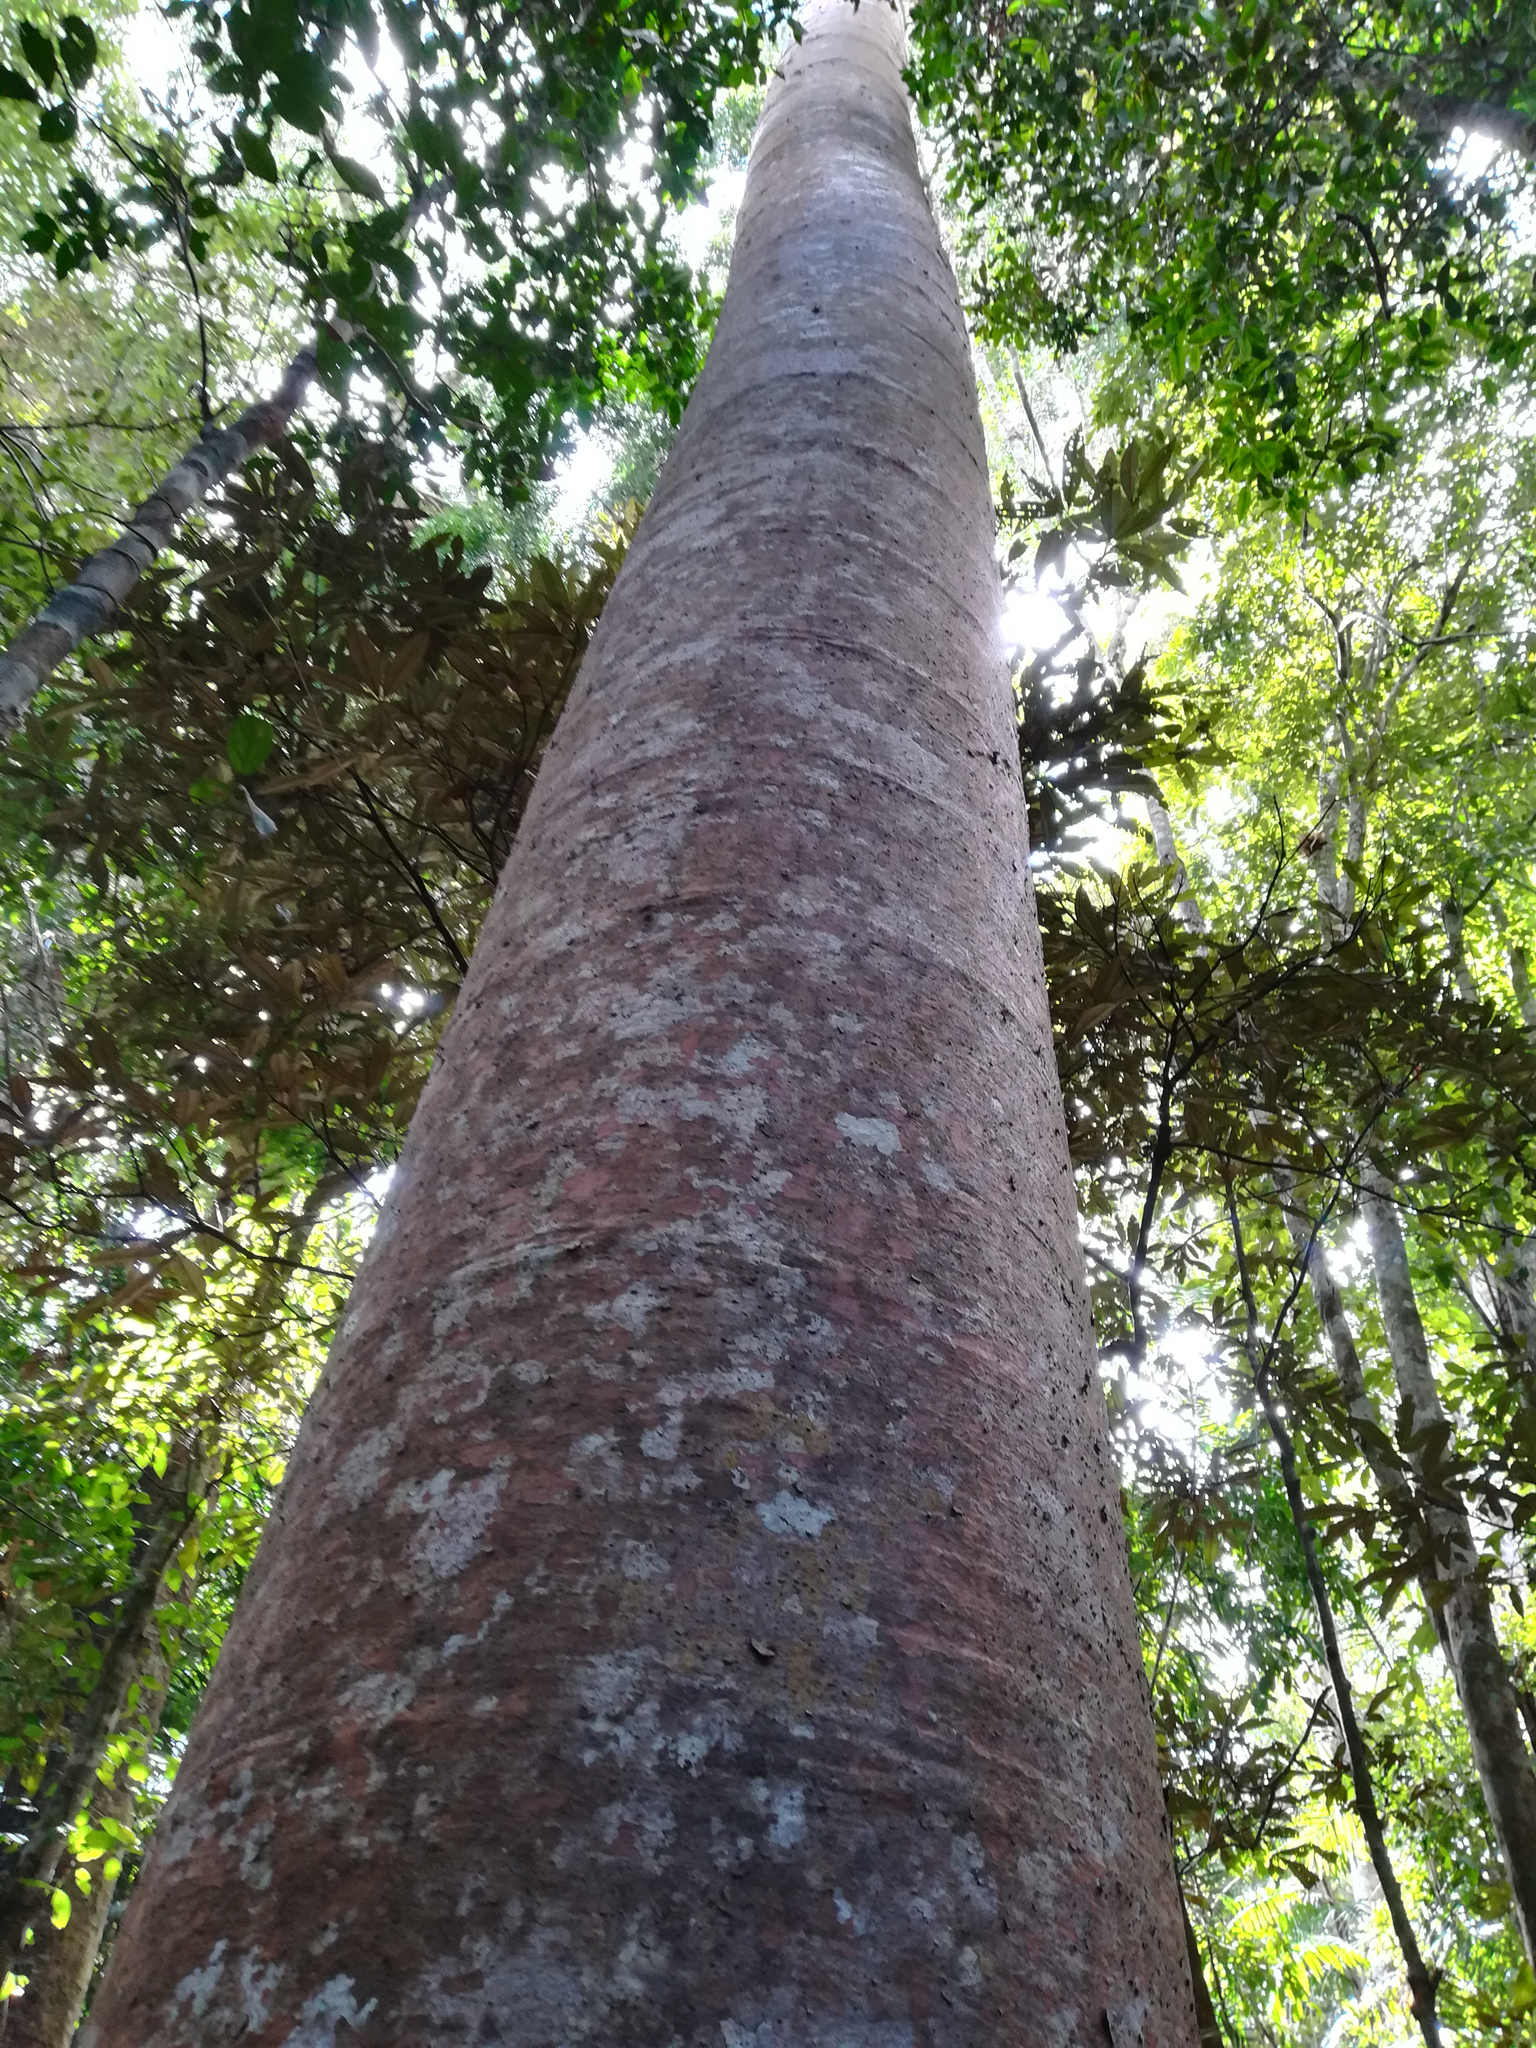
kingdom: Plantae
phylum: Tracheophyta
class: Pinopsida
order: Pinales
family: Araucariaceae
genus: Agathis
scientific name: Agathis robusta
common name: Australian-kauri
